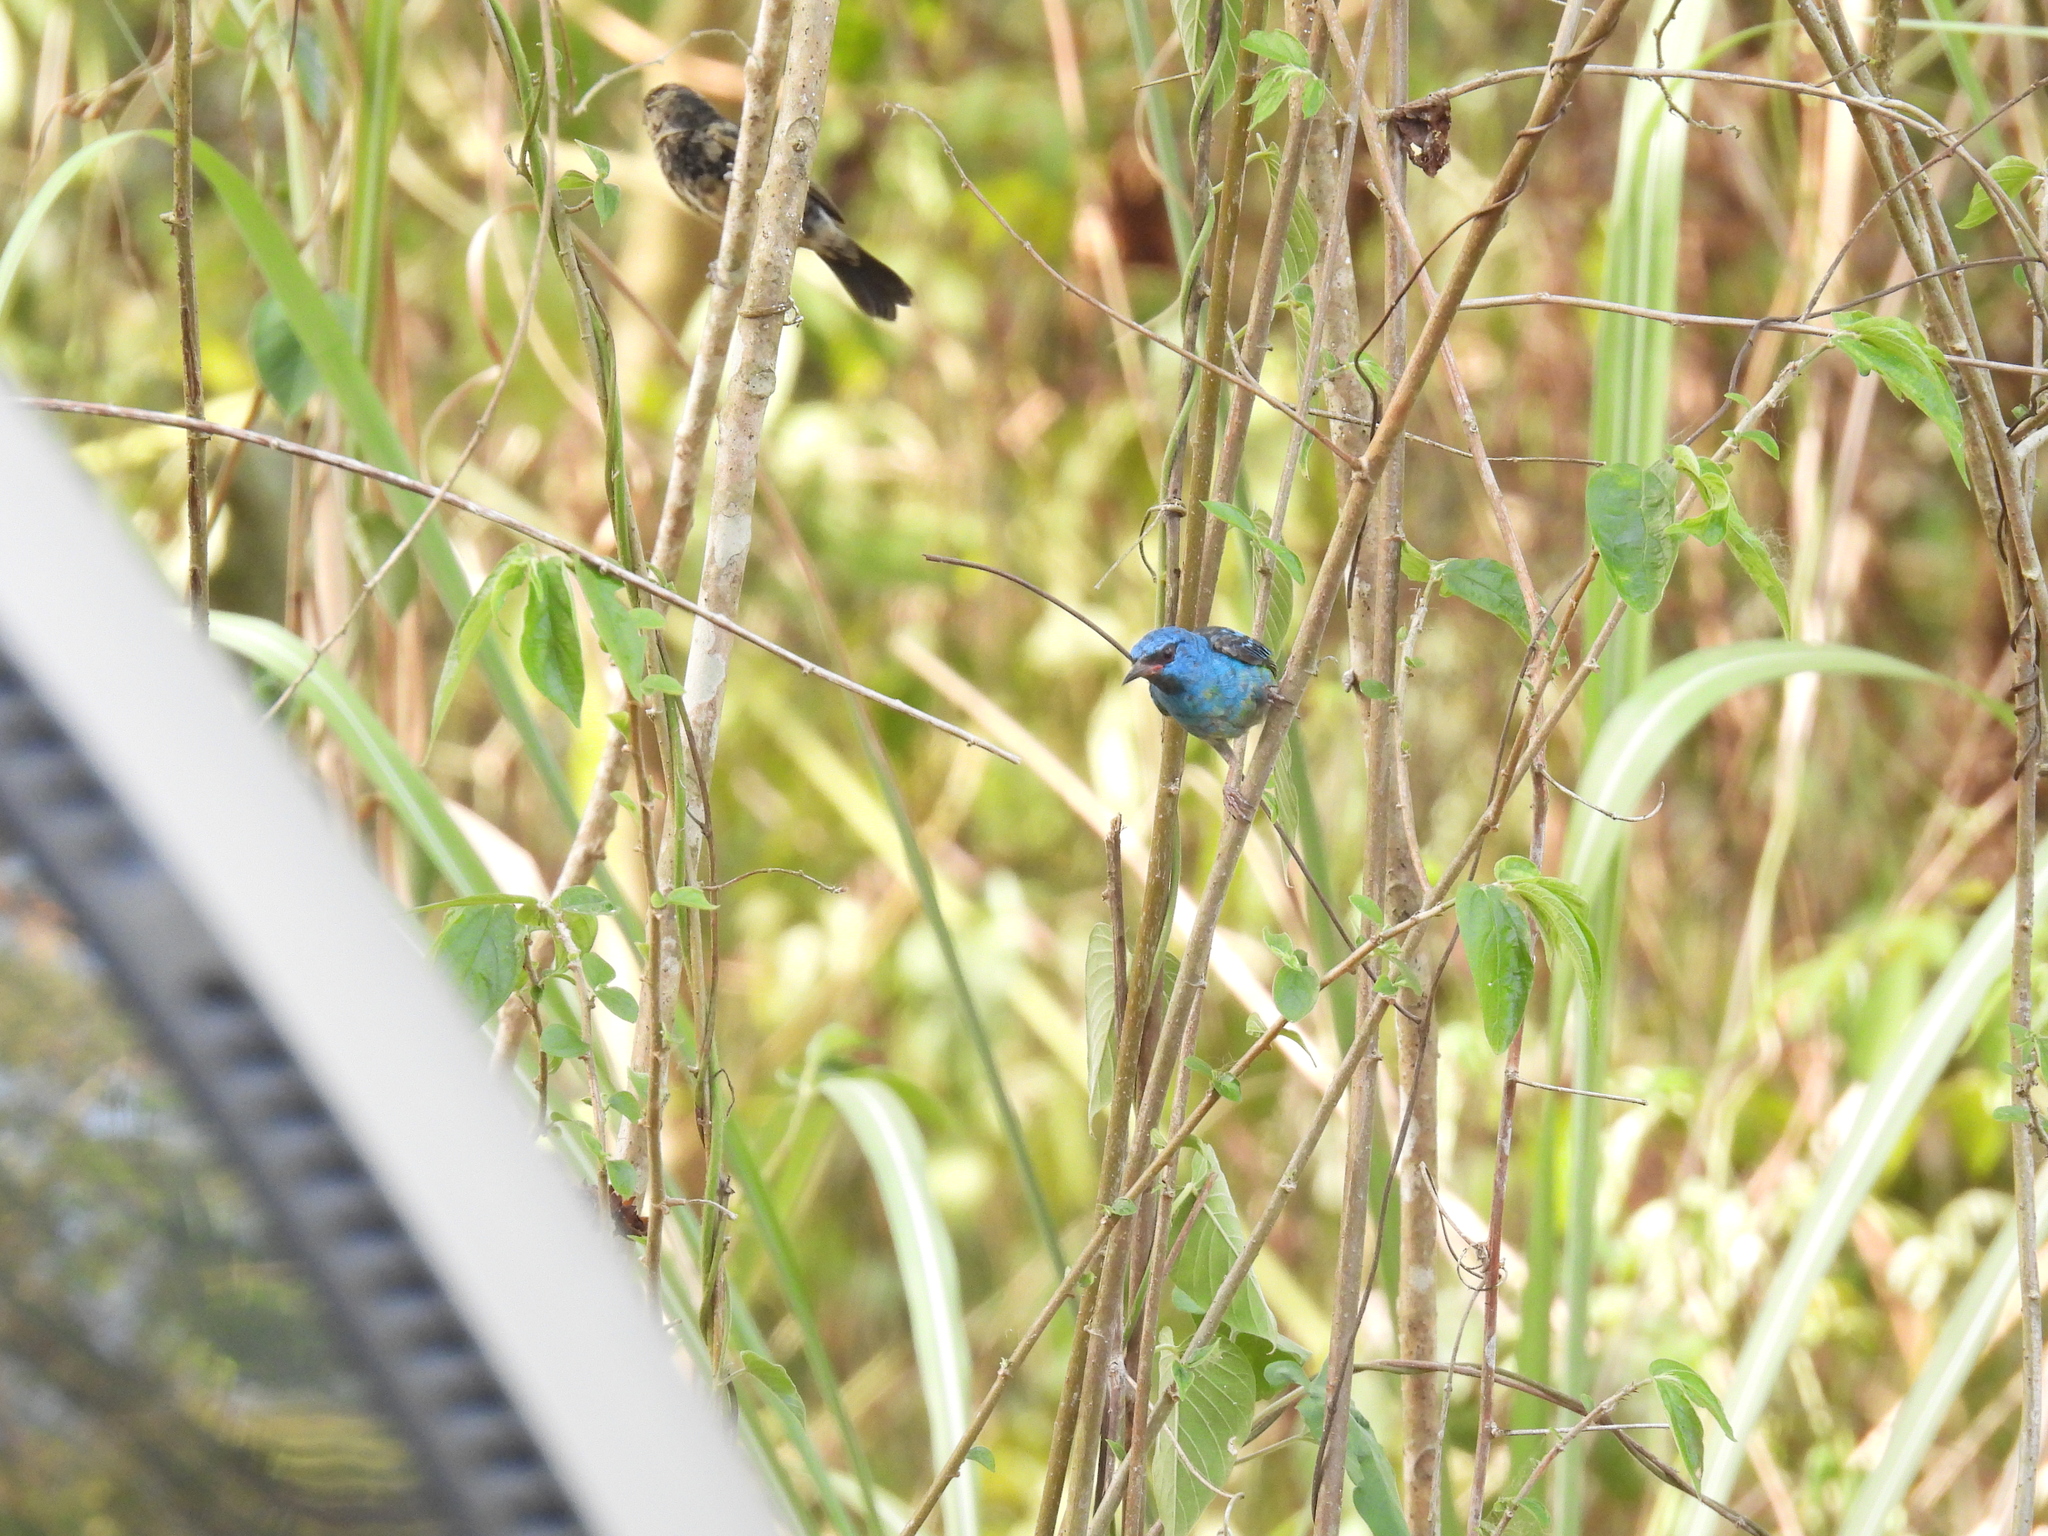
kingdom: Animalia
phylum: Chordata
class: Aves
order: Passeriformes
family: Thraupidae
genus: Dacnis
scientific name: Dacnis cayana
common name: Blue dacnis
